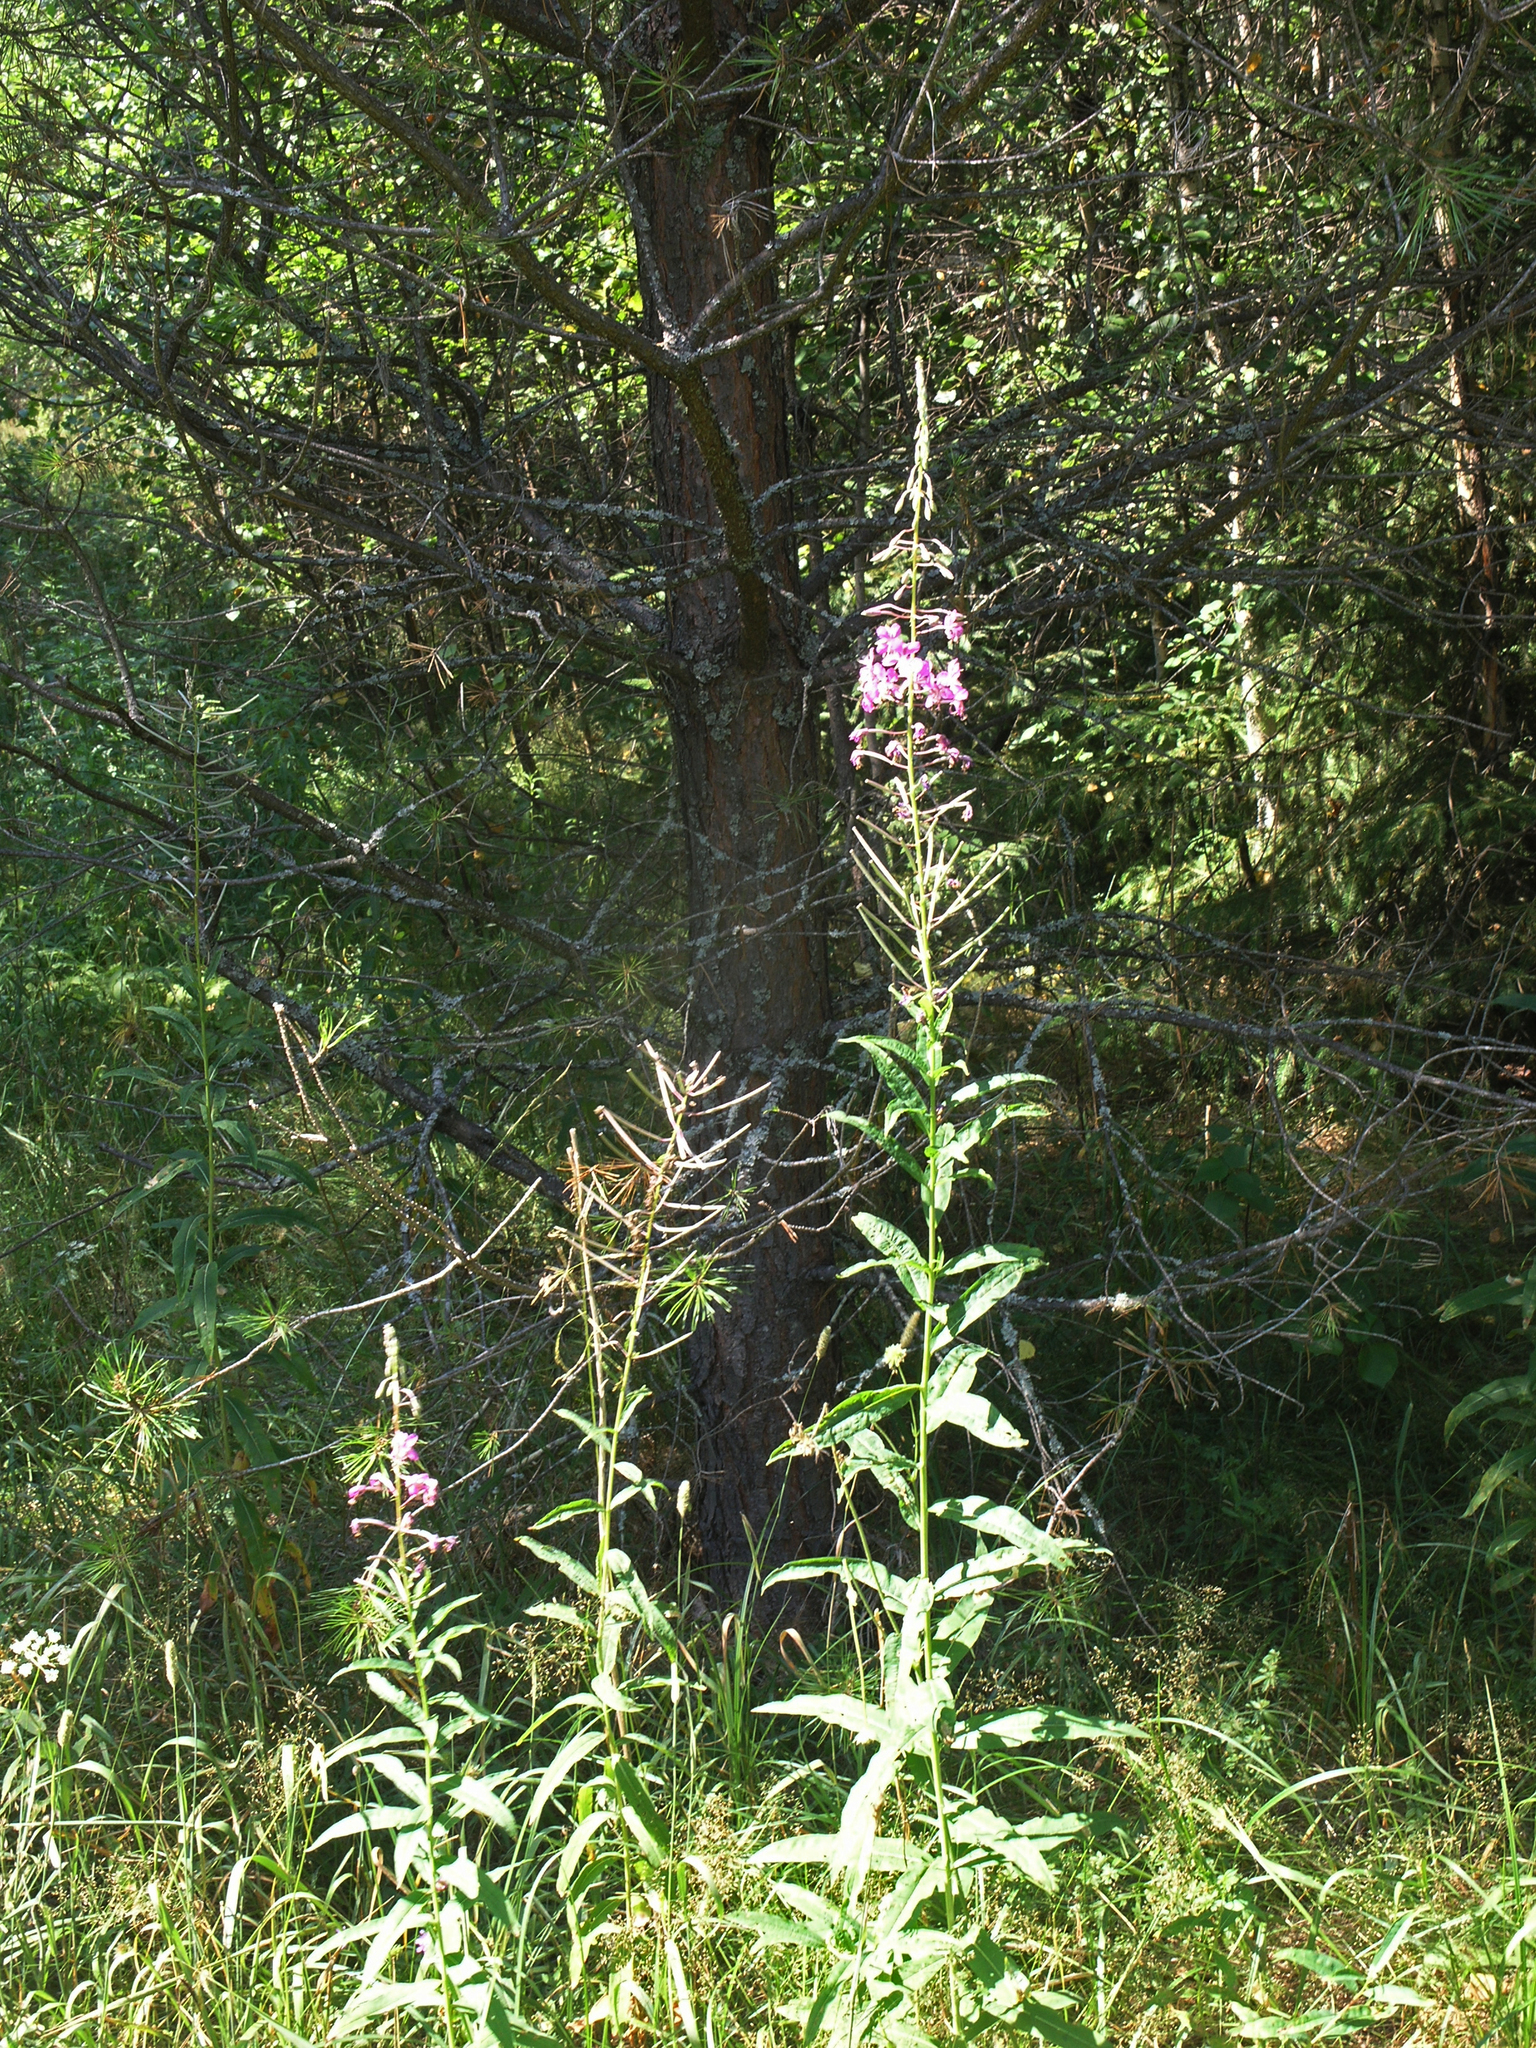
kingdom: Plantae
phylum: Tracheophyta
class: Magnoliopsida
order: Myrtales
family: Onagraceae
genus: Chamaenerion
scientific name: Chamaenerion angustifolium
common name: Fireweed
